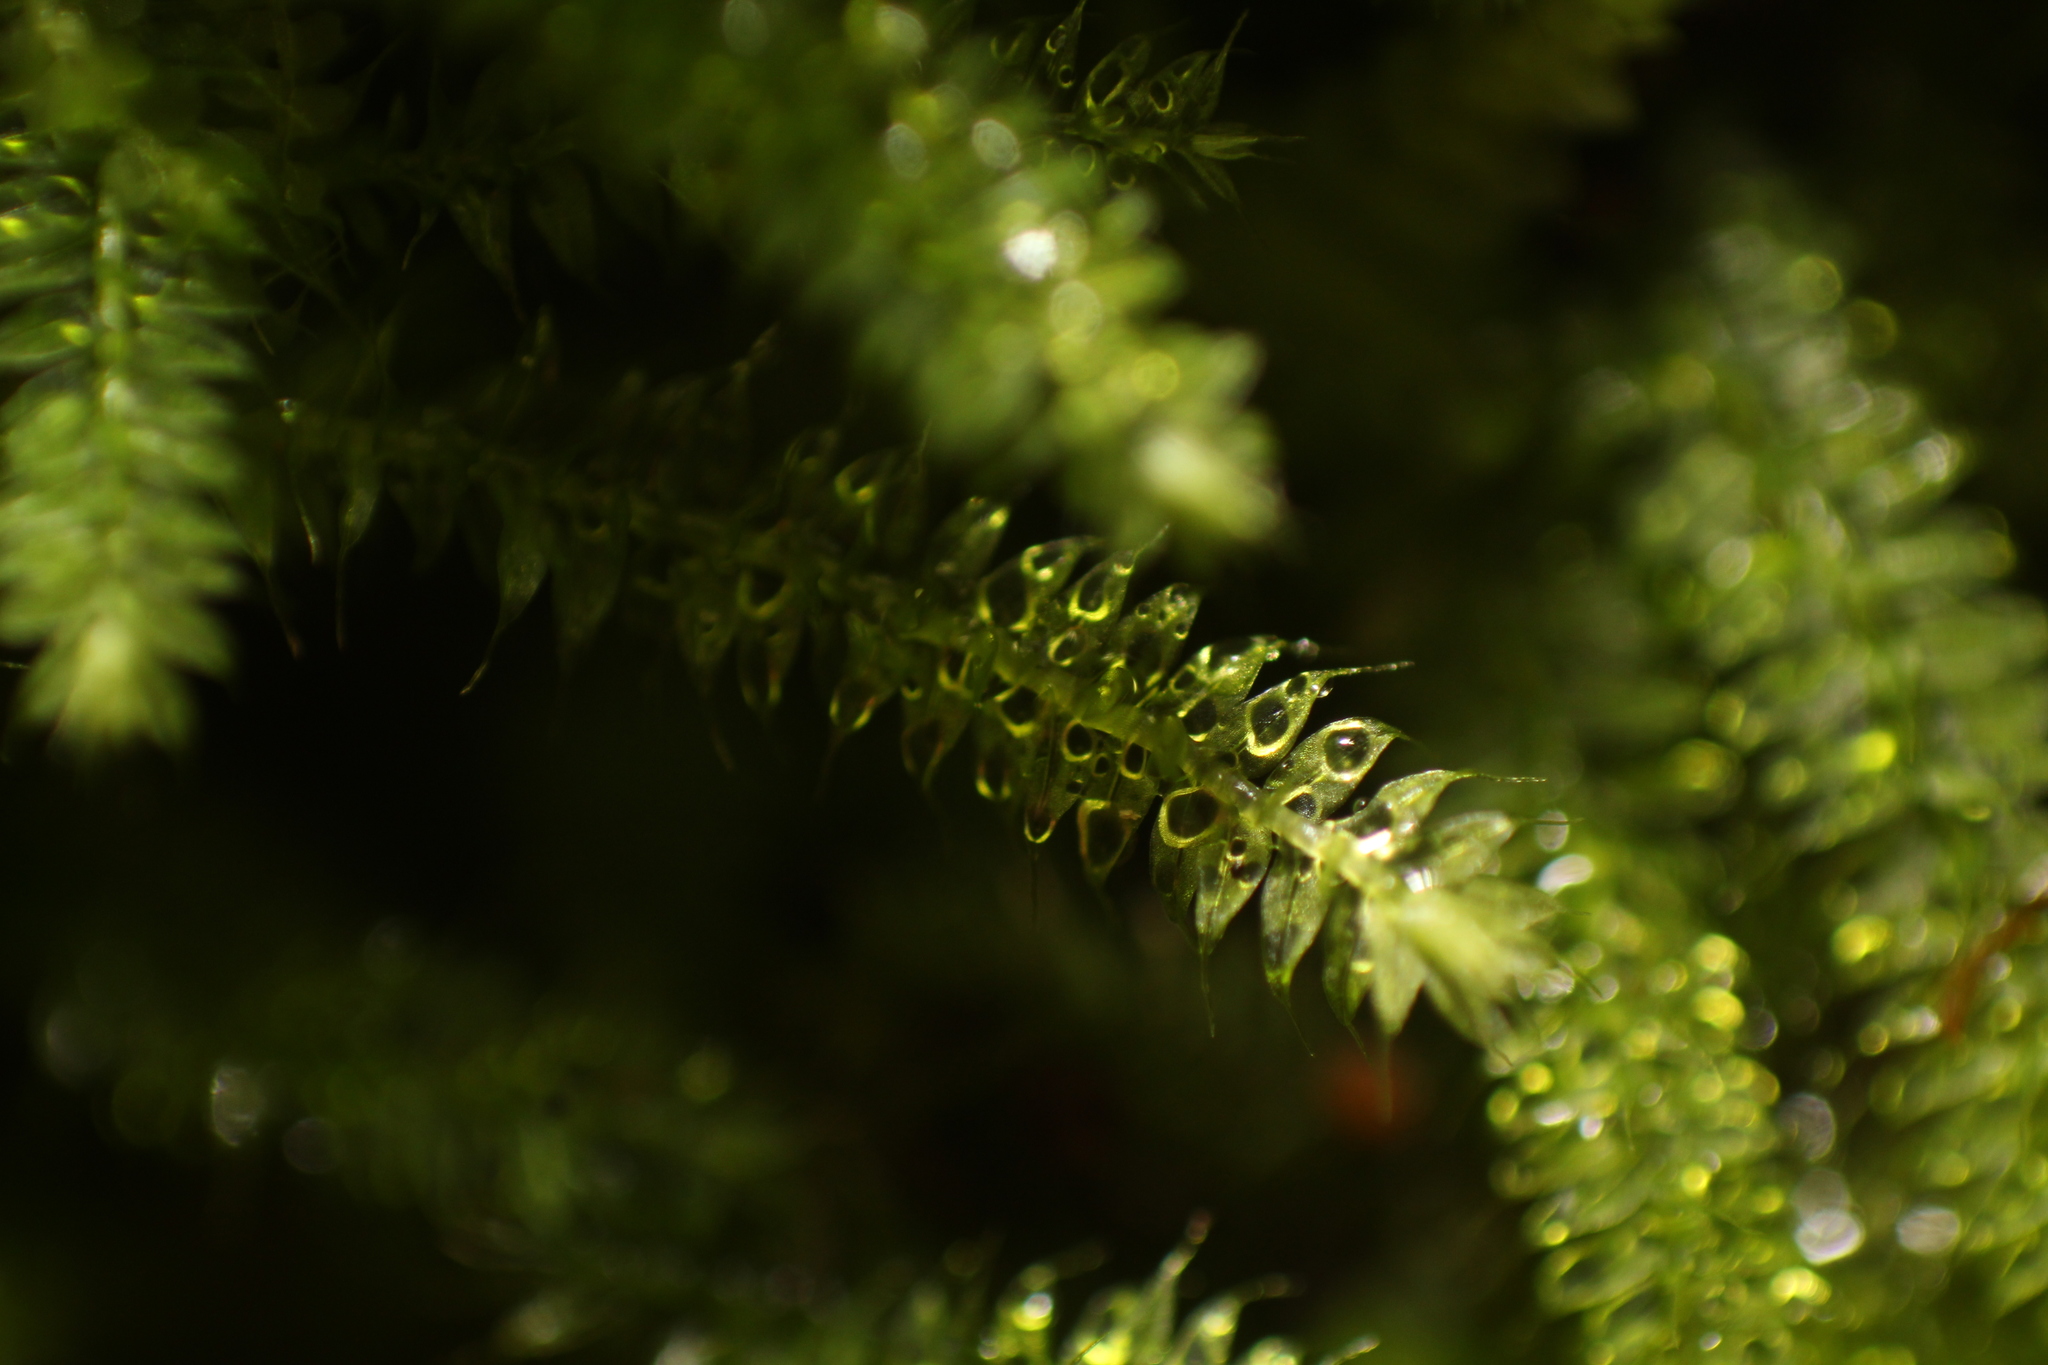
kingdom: Plantae
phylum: Bryophyta
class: Bryopsida
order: Hypnodendrales
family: Racopilaceae
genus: Racopilum
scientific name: Racopilum cuspidigerum
